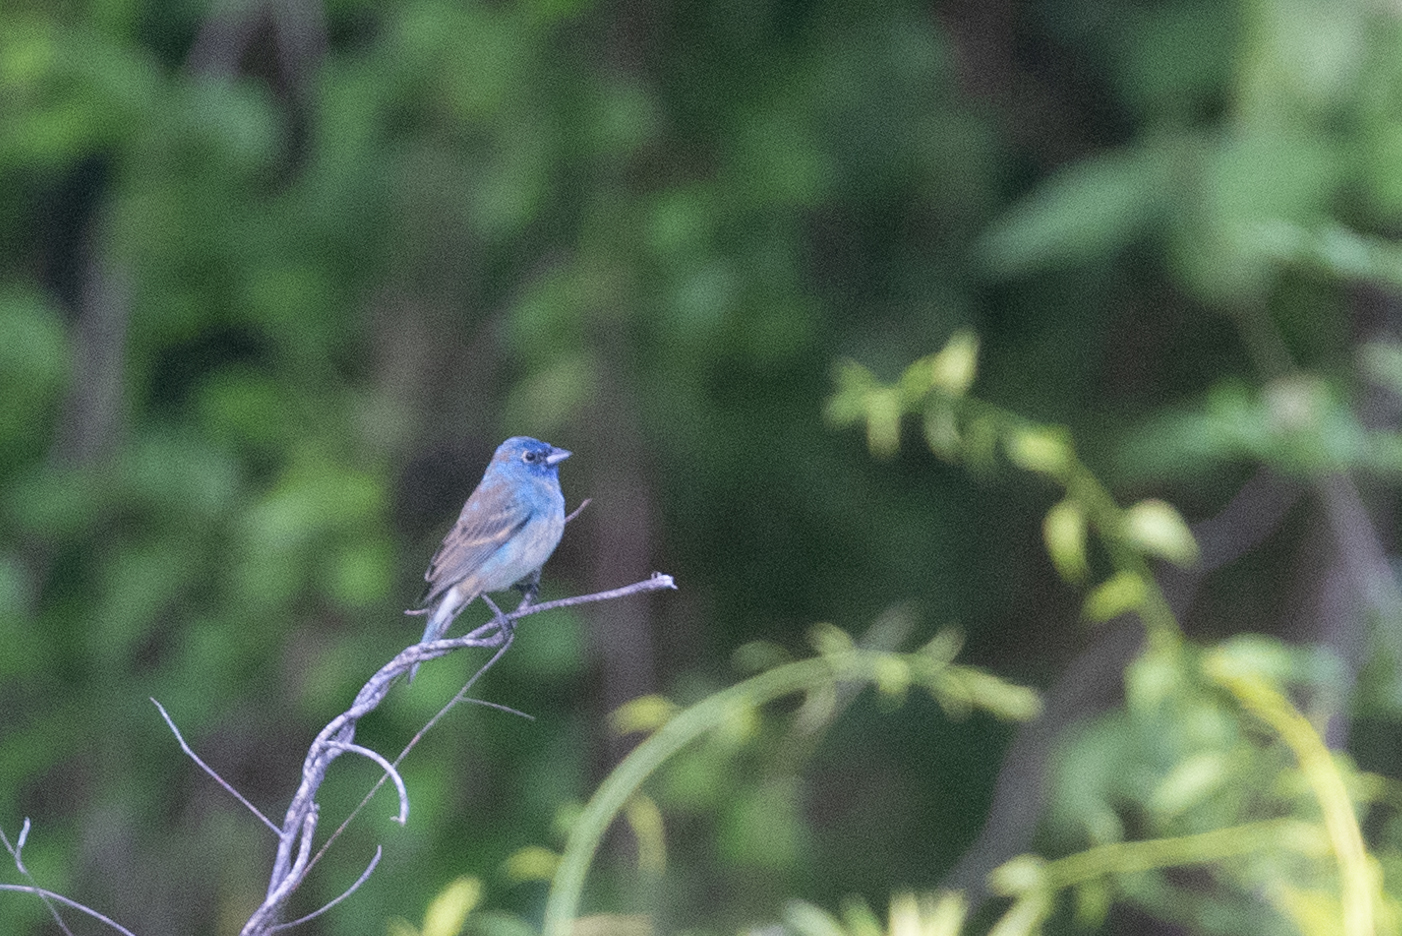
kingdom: Animalia
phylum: Chordata
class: Aves
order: Passeriformes
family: Cardinalidae
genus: Passerina
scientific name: Passerina cyanea
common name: Indigo bunting
